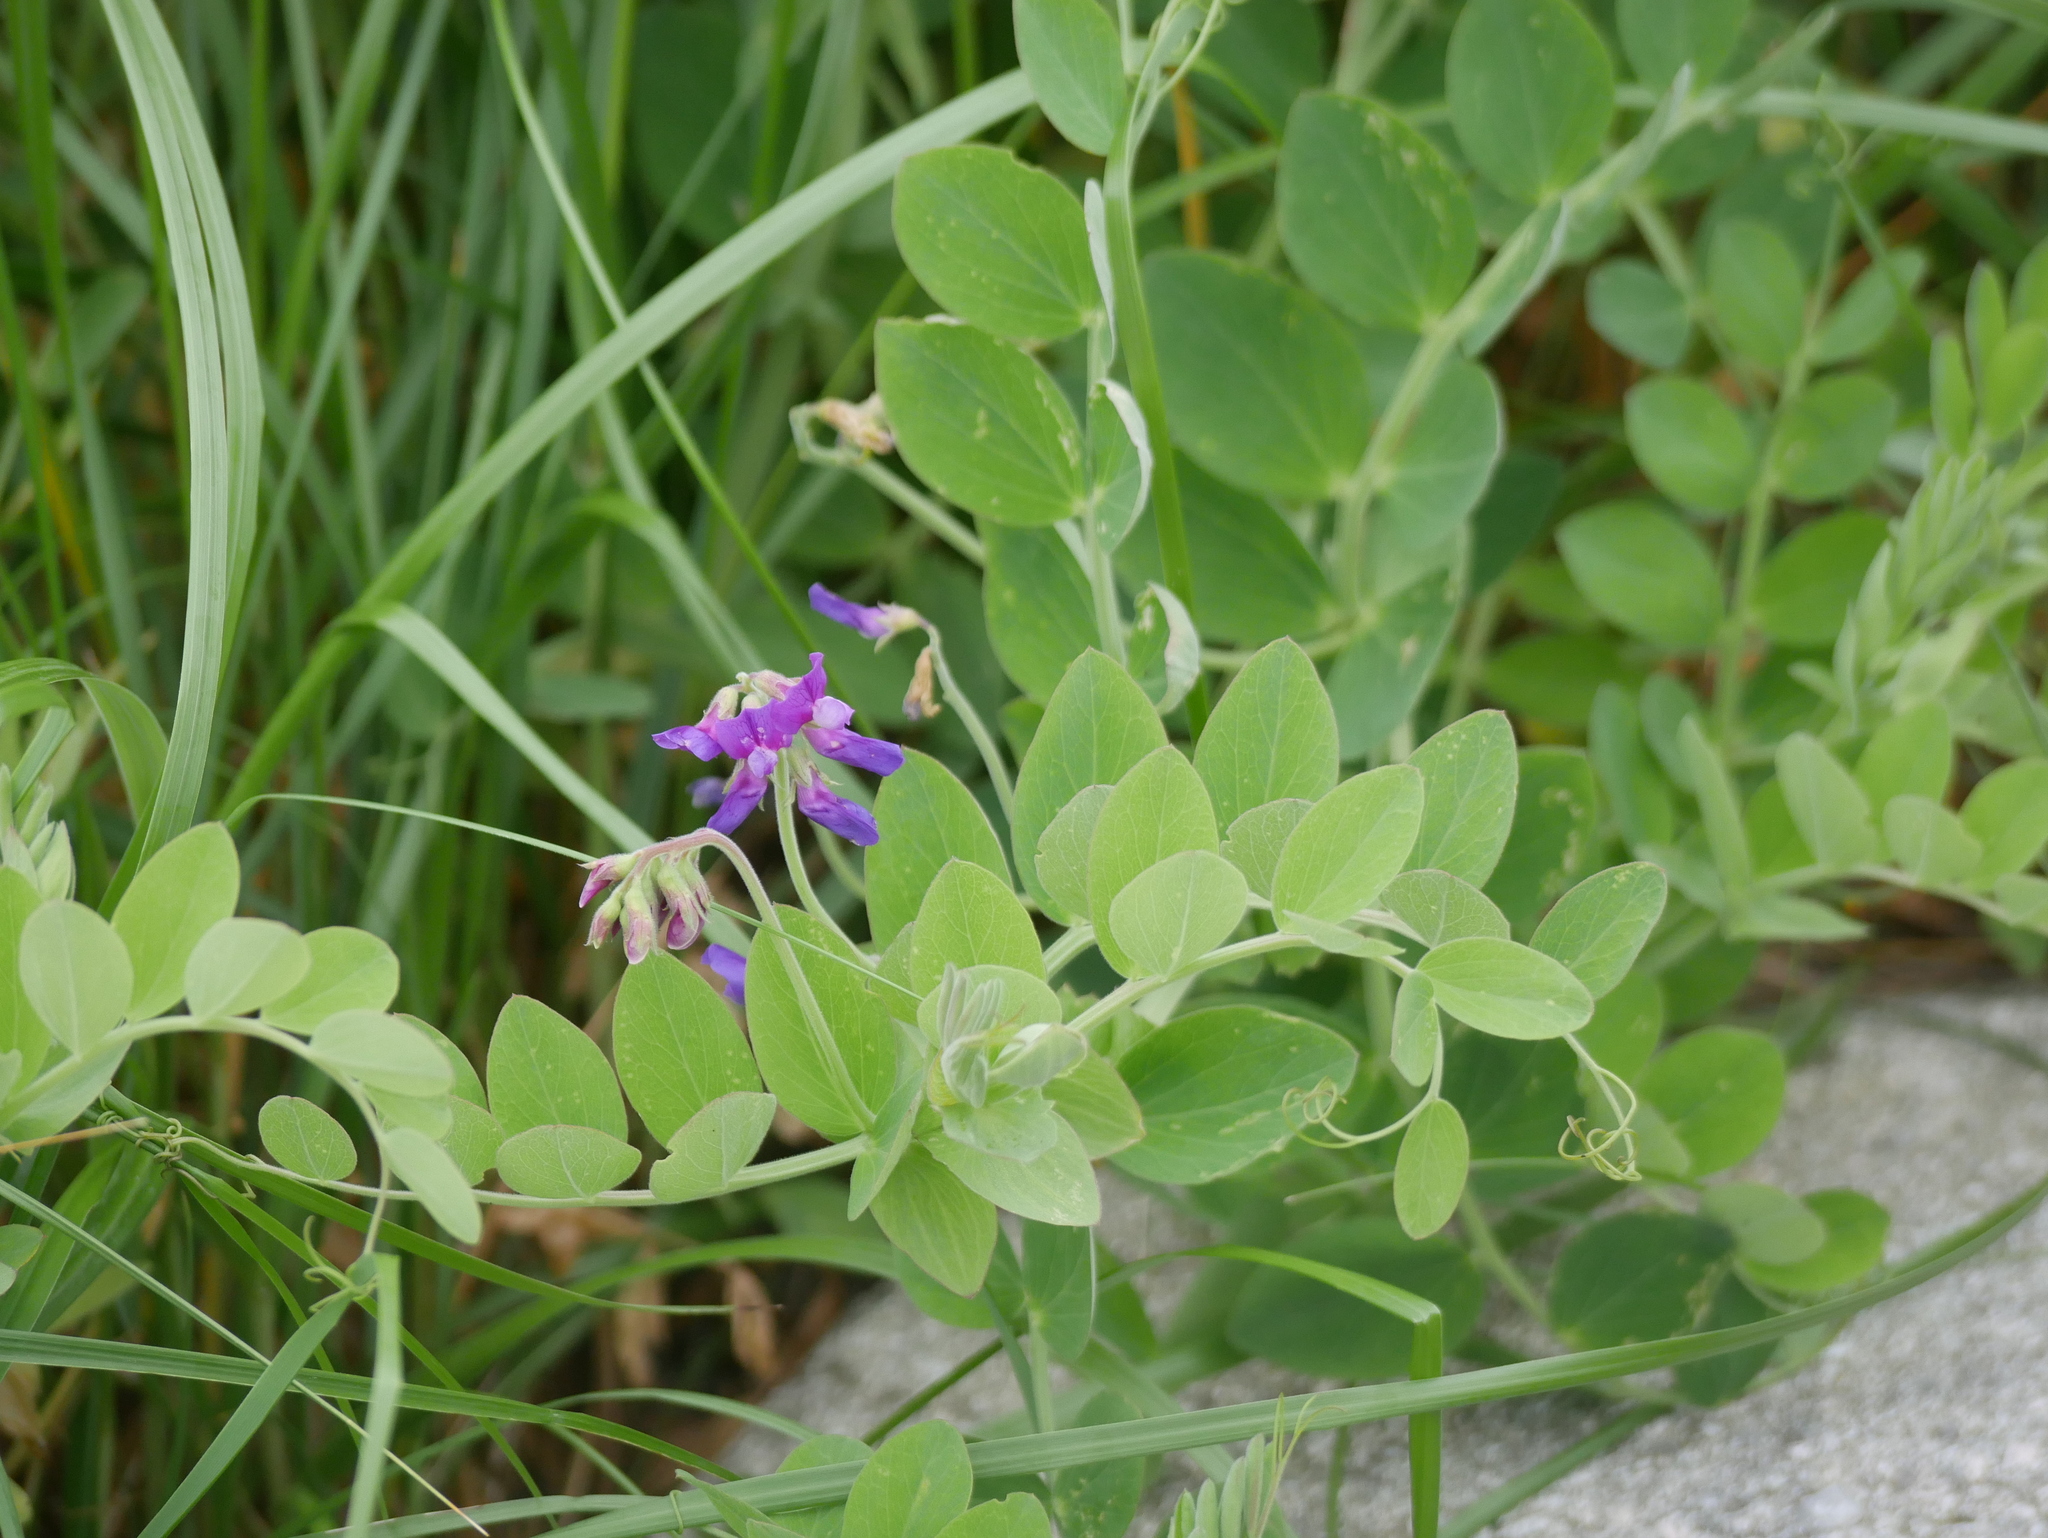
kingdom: Plantae
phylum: Tracheophyta
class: Magnoliopsida
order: Fabales
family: Fabaceae
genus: Lathyrus
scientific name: Lathyrus japonicus
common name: Sea pea
